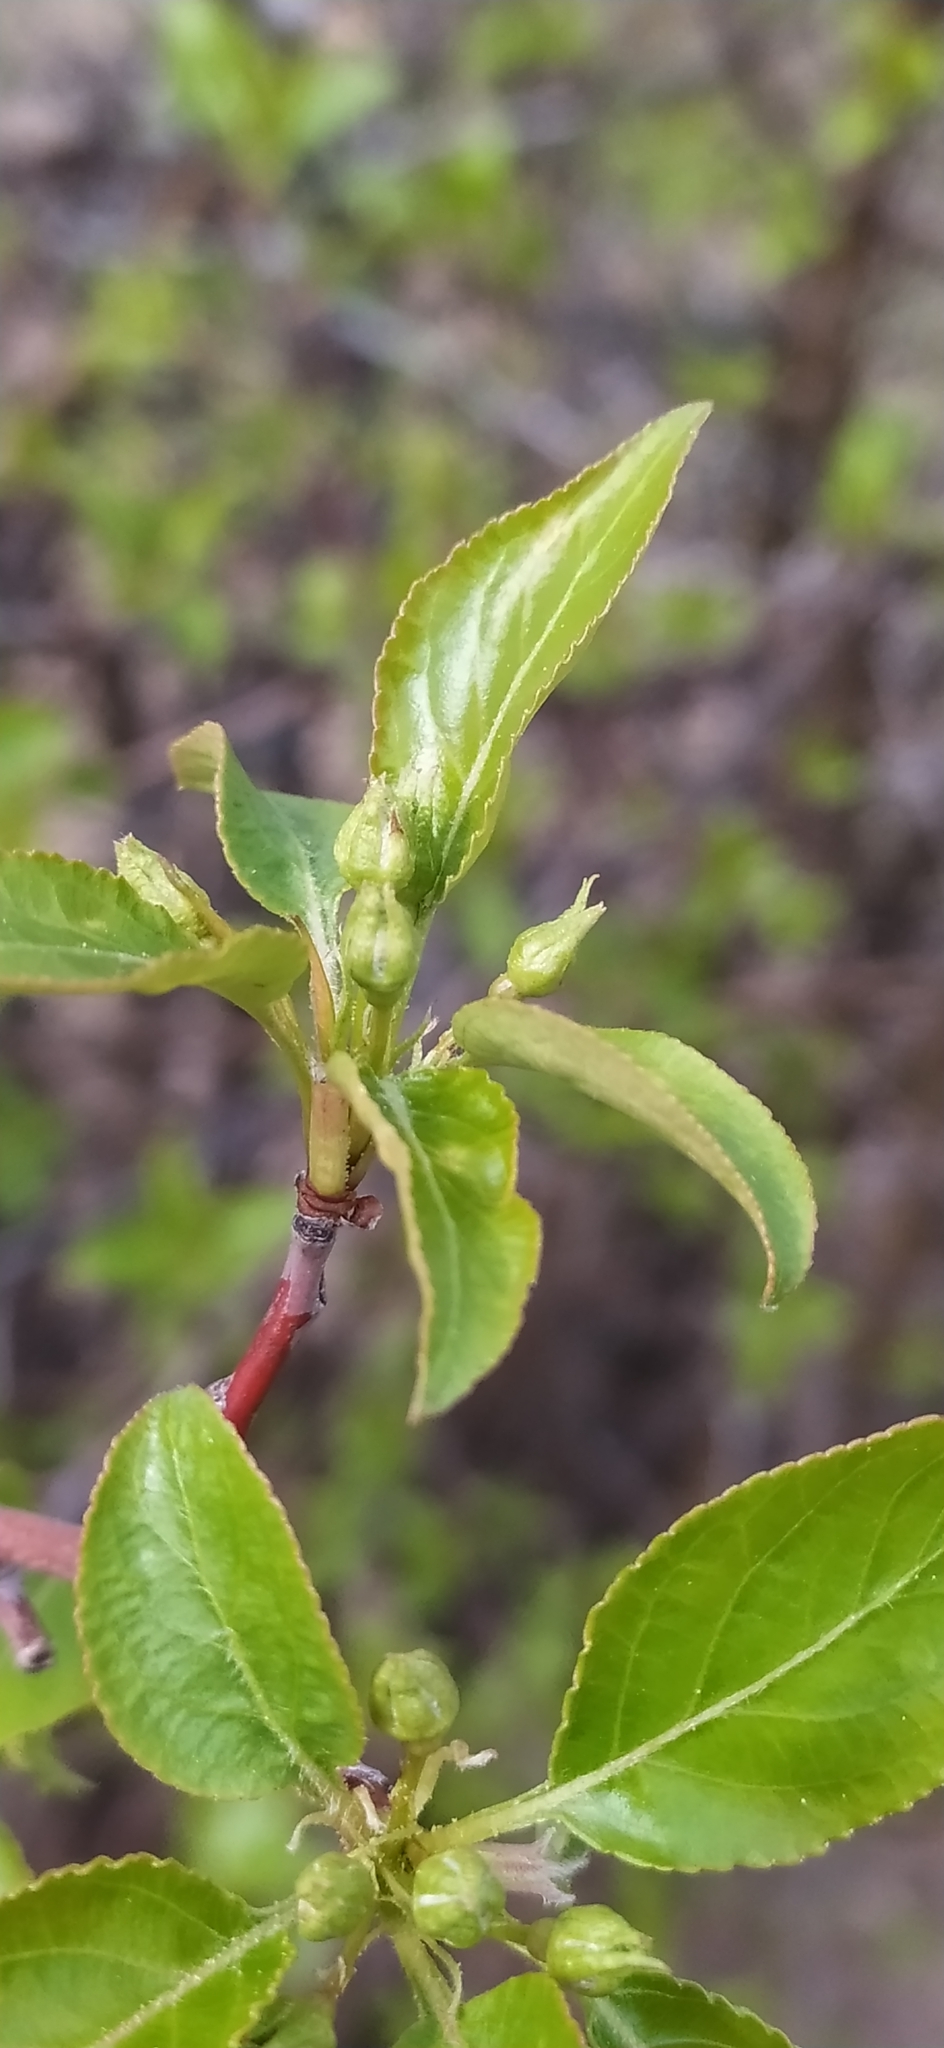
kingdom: Plantae
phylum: Tracheophyta
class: Magnoliopsida
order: Rosales
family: Rosaceae
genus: Malus
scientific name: Malus baccata
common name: Siberian crab
